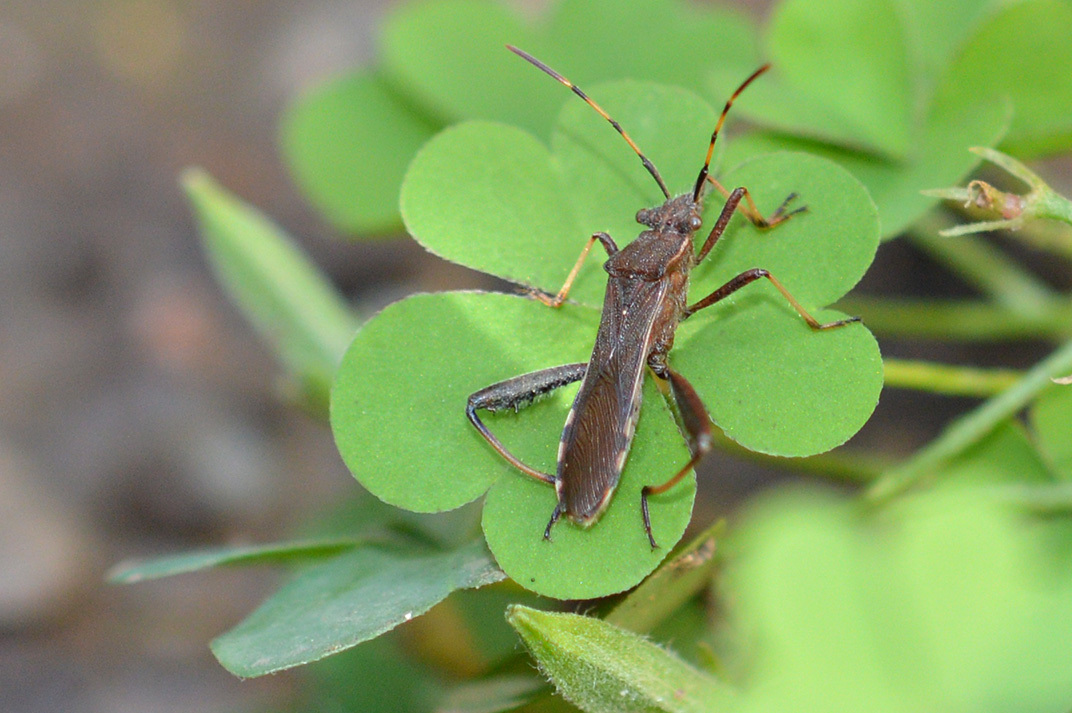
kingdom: Animalia
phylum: Arthropoda
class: Insecta
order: Hemiptera
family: Alydidae
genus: Camptopus
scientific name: Camptopus lateralis
